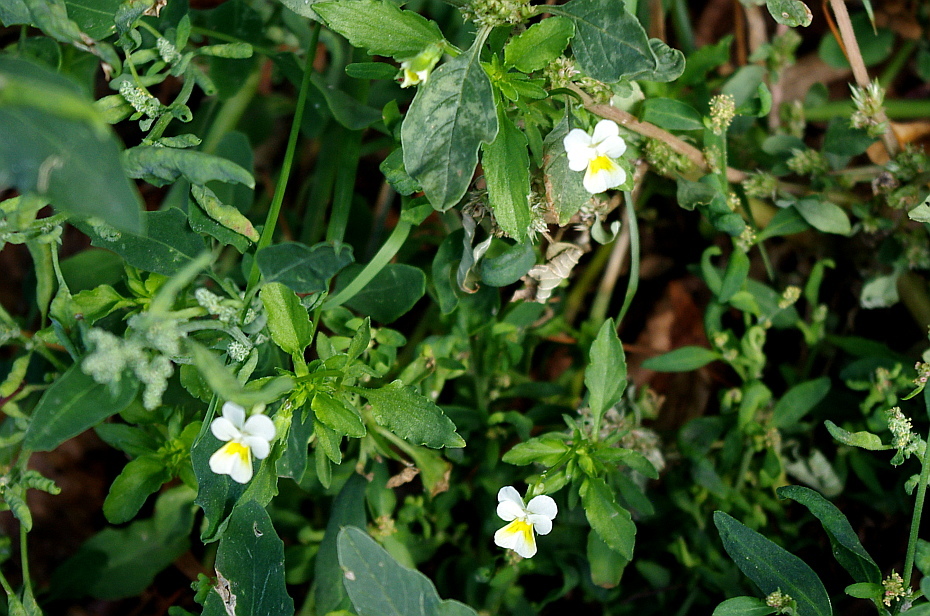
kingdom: Plantae
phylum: Tracheophyta
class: Magnoliopsida
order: Malpighiales
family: Violaceae
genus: Viola
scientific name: Viola arvensis
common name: Field pansy
